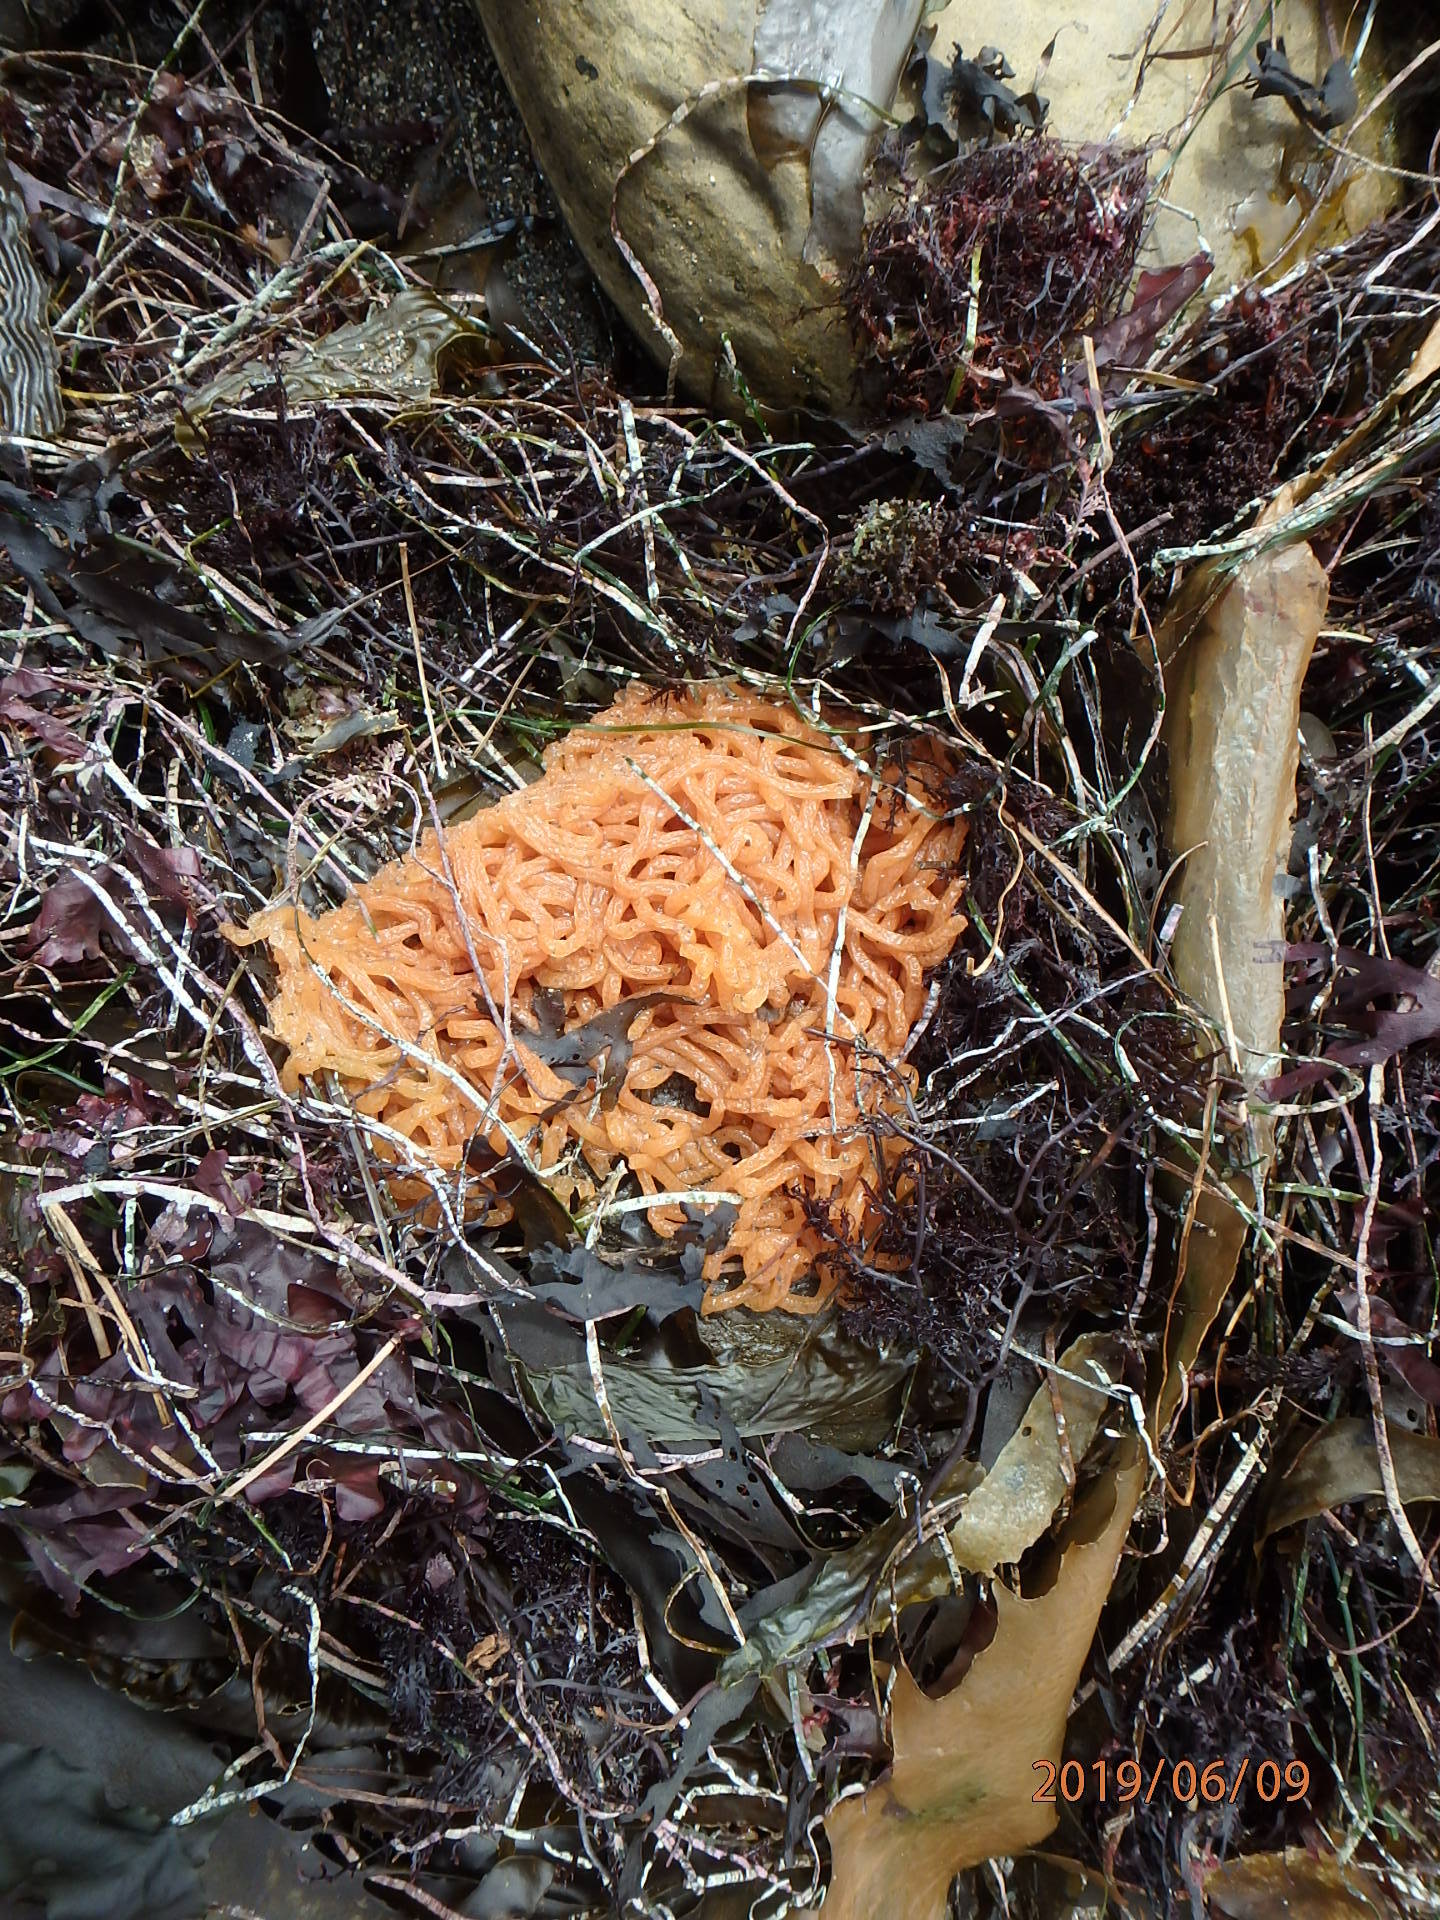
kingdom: Animalia
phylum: Mollusca
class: Gastropoda
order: Aplysiida
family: Aplysiidae
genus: Aplysia
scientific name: Aplysia
